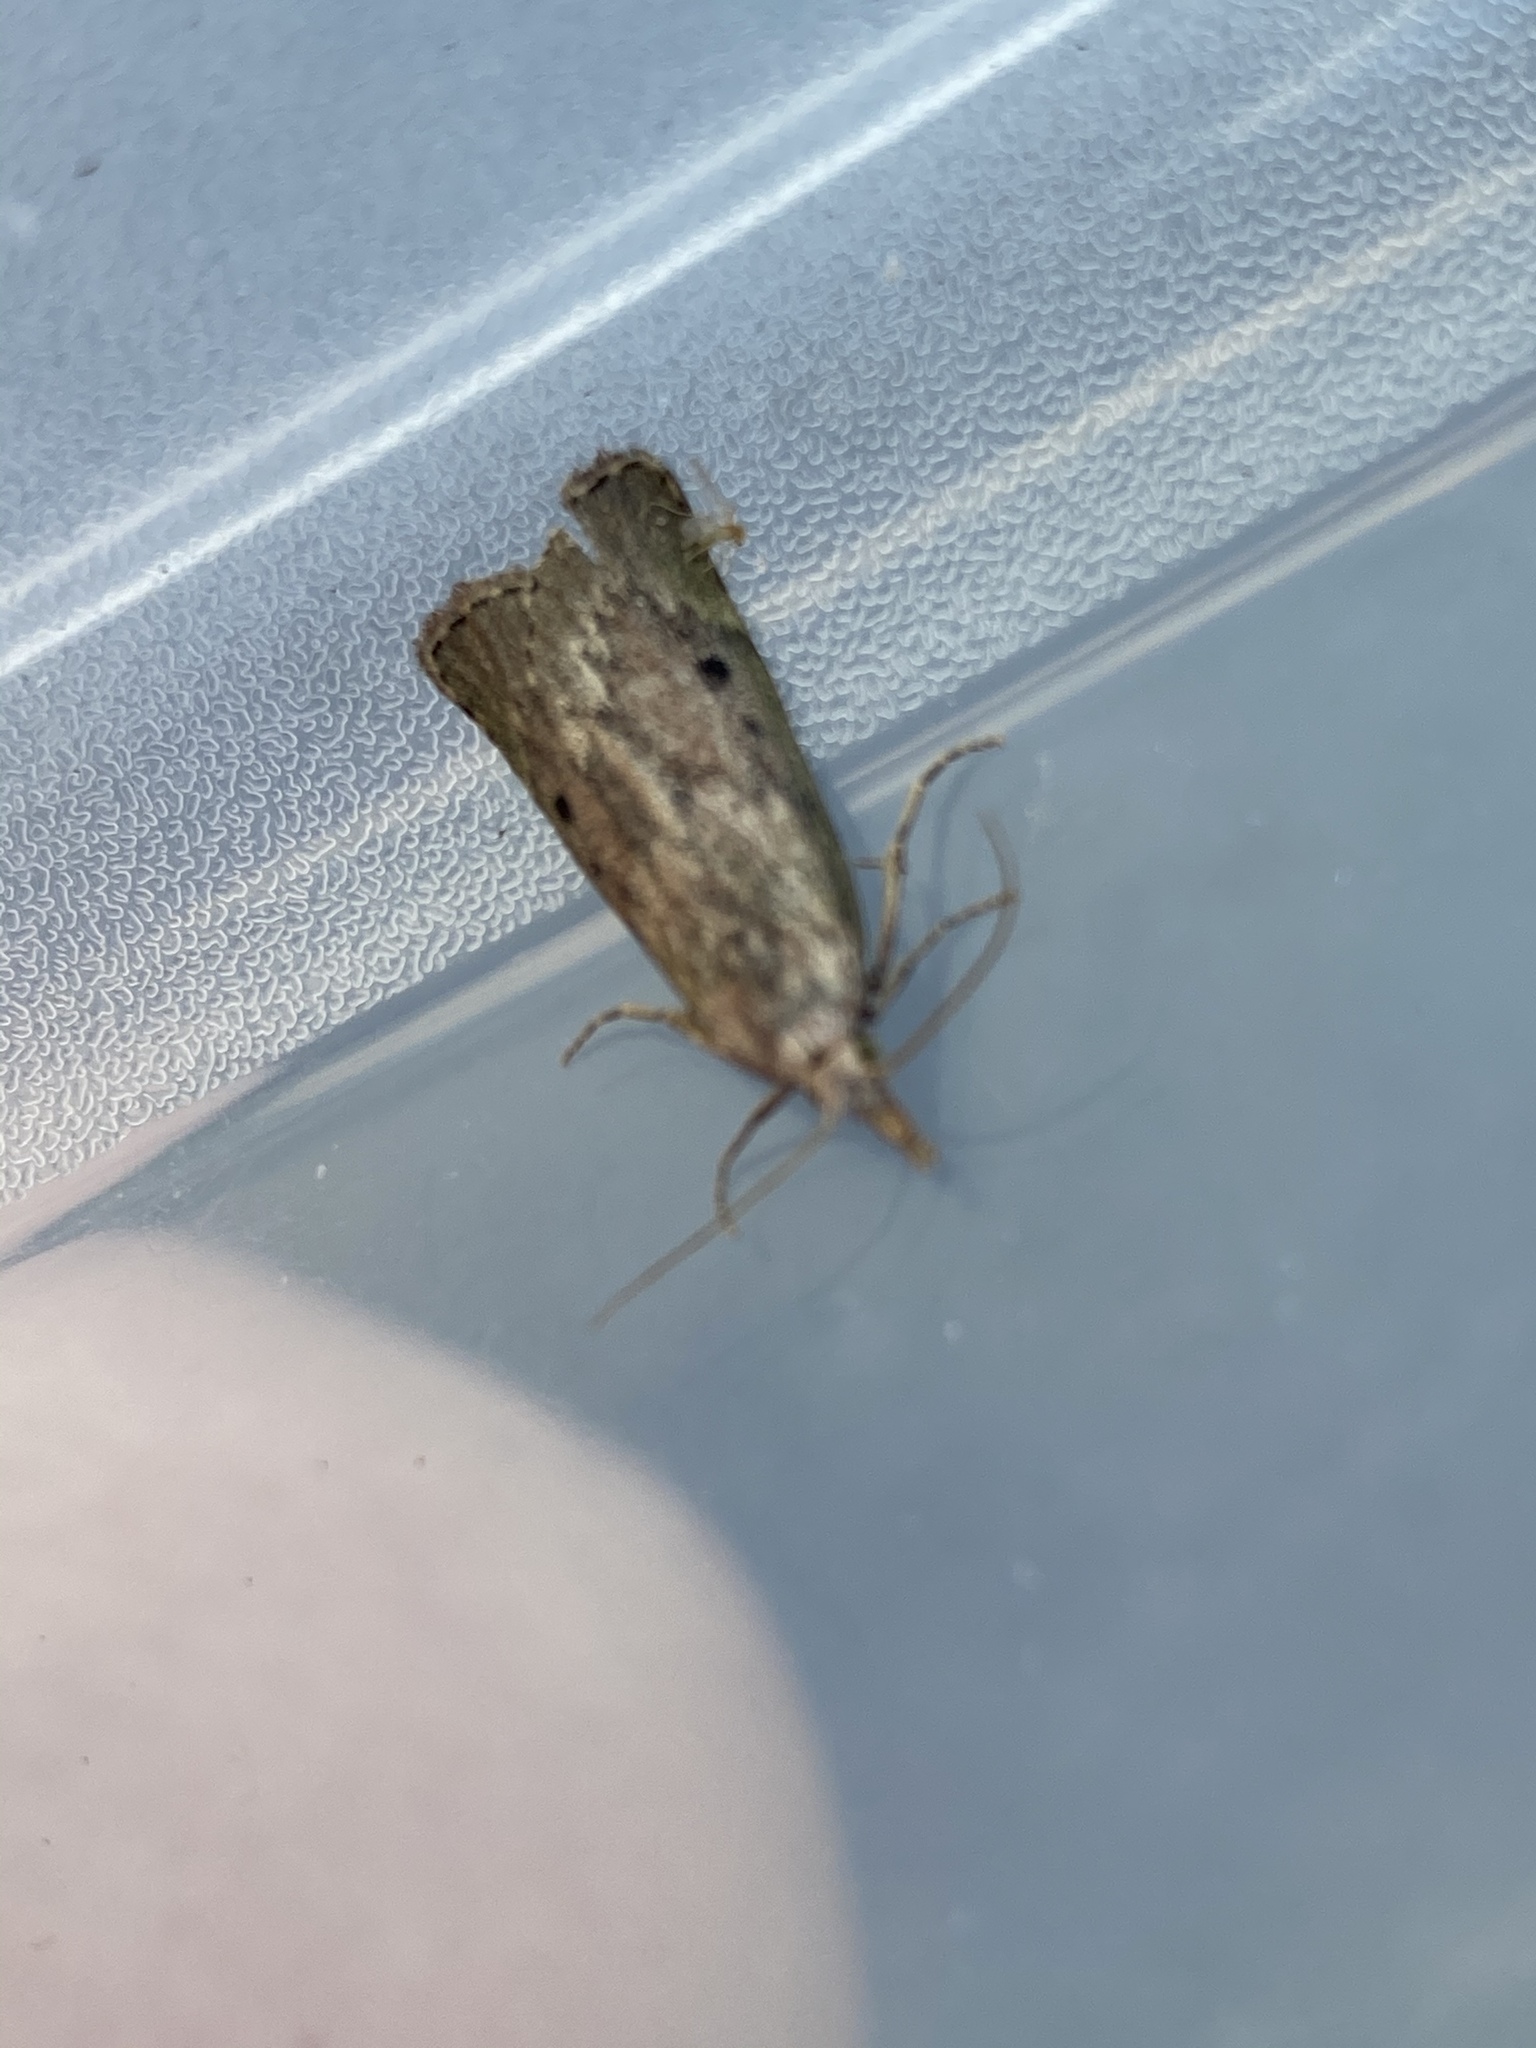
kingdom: Animalia
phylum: Arthropoda
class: Insecta
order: Lepidoptera
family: Pyralidae
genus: Aphomia
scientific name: Aphomia sociella
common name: Bee moth
